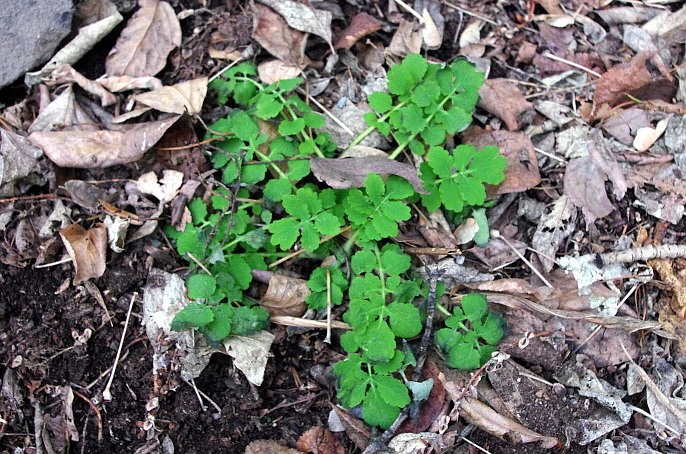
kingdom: Plantae
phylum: Tracheophyta
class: Magnoliopsida
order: Ranunculales
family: Papaveraceae
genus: Chelidonium
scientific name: Chelidonium majus
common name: Greater celandine
